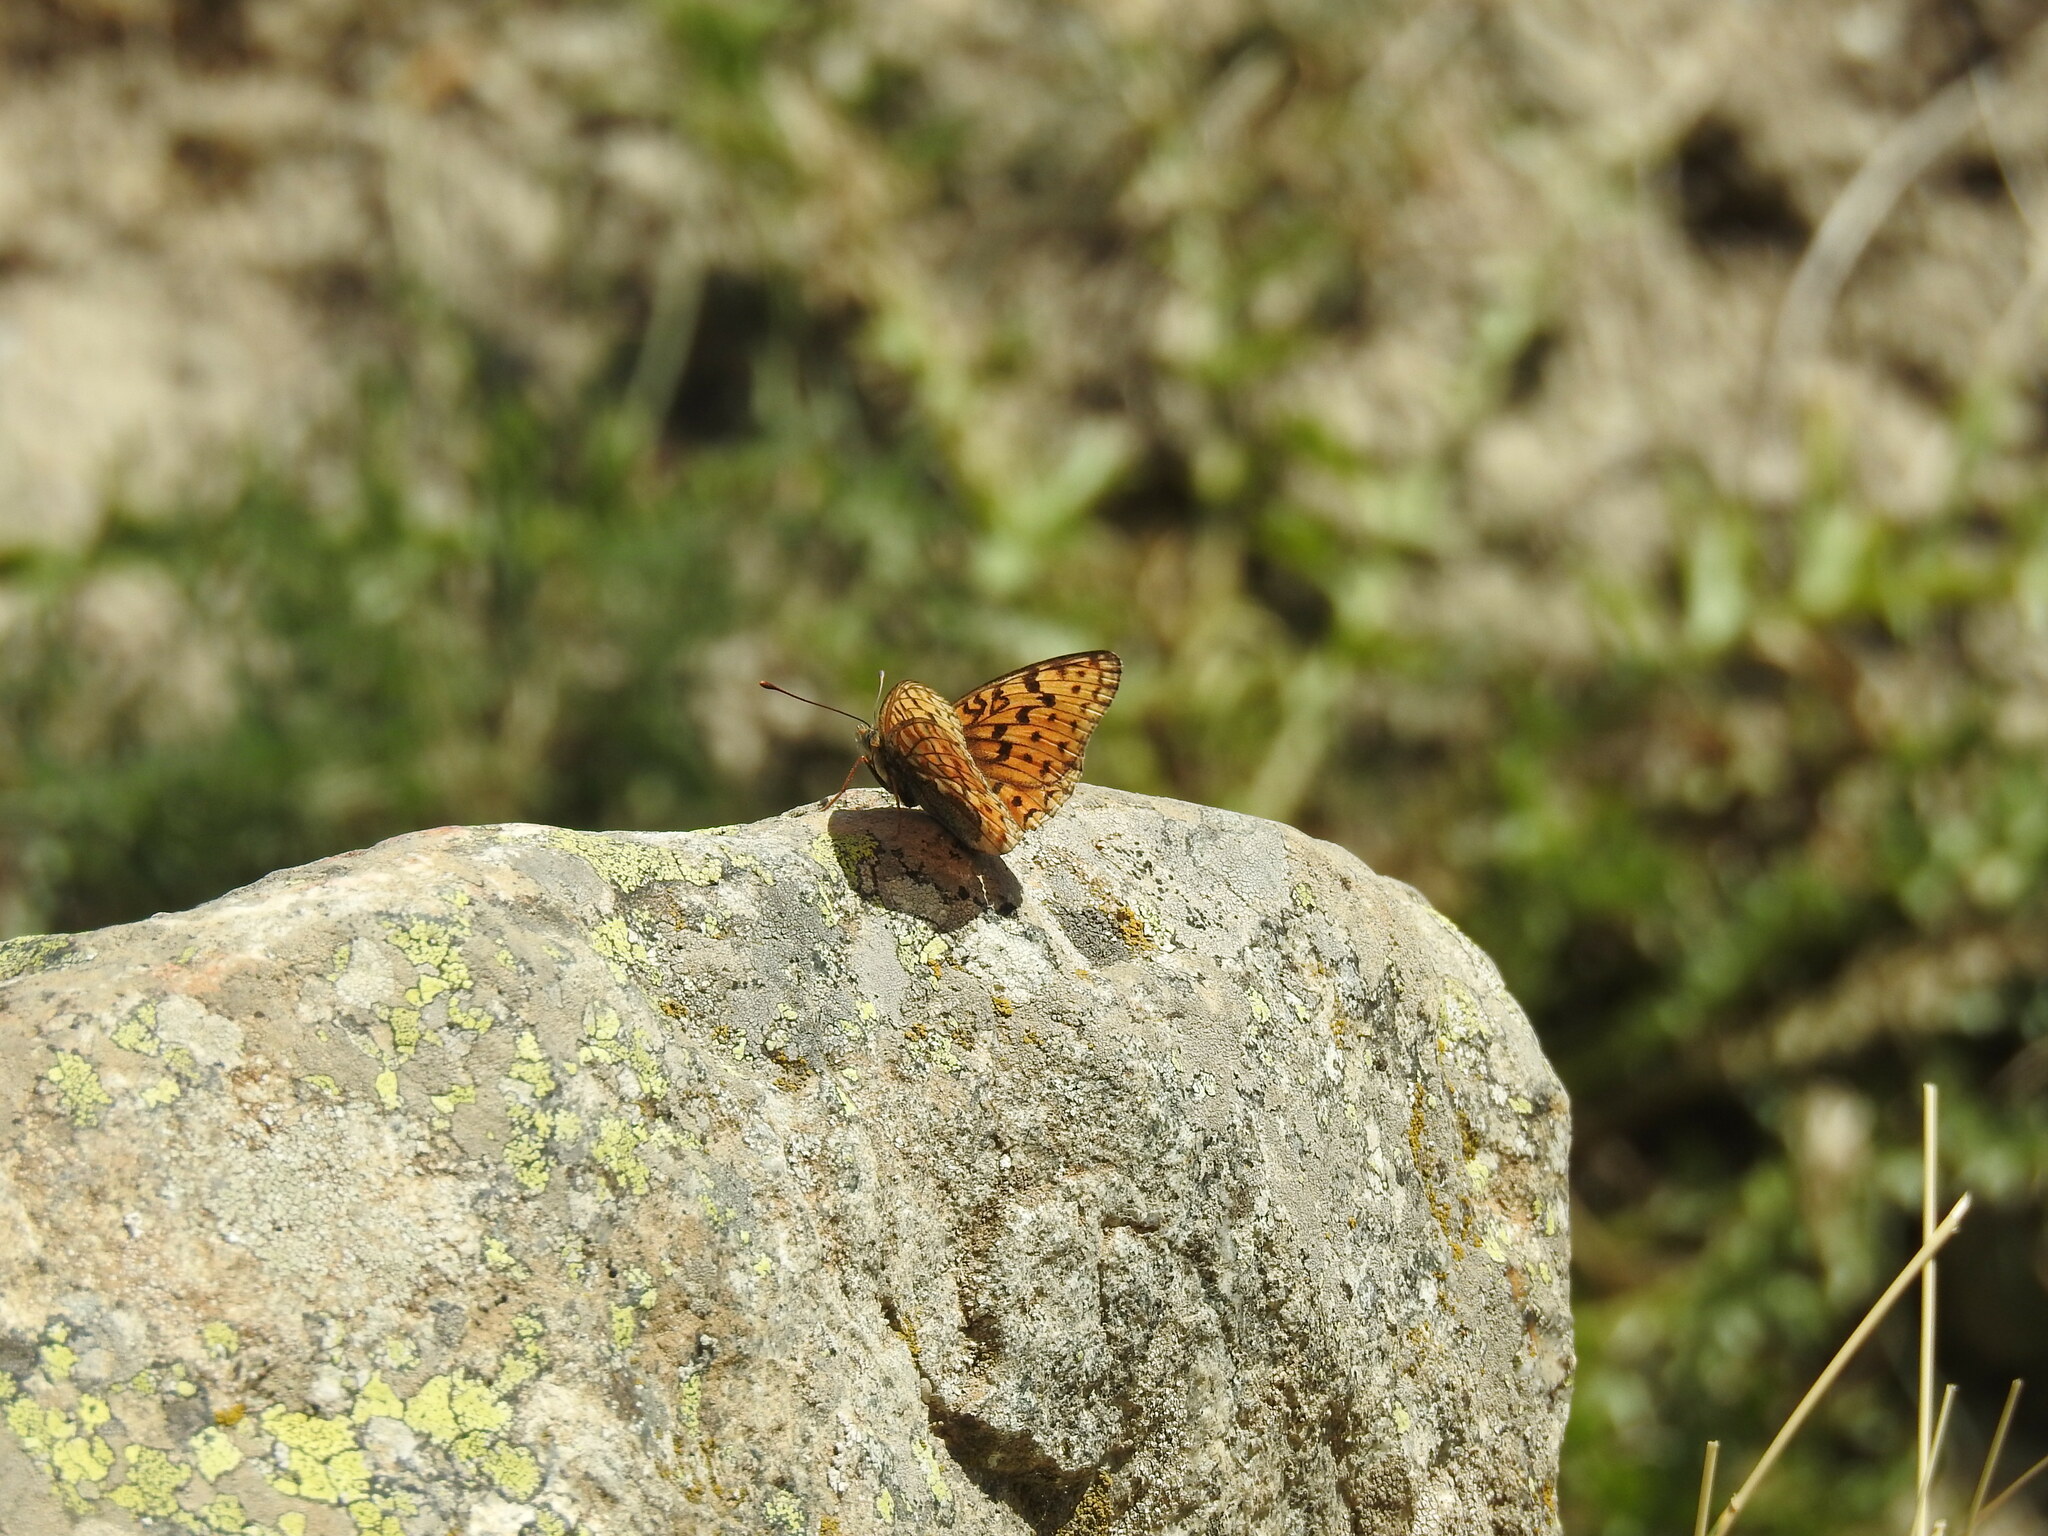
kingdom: Animalia
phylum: Arthropoda
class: Insecta
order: Lepidoptera
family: Nymphalidae
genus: Fabriciana
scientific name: Fabriciana niobe
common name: Niobe fritillary
